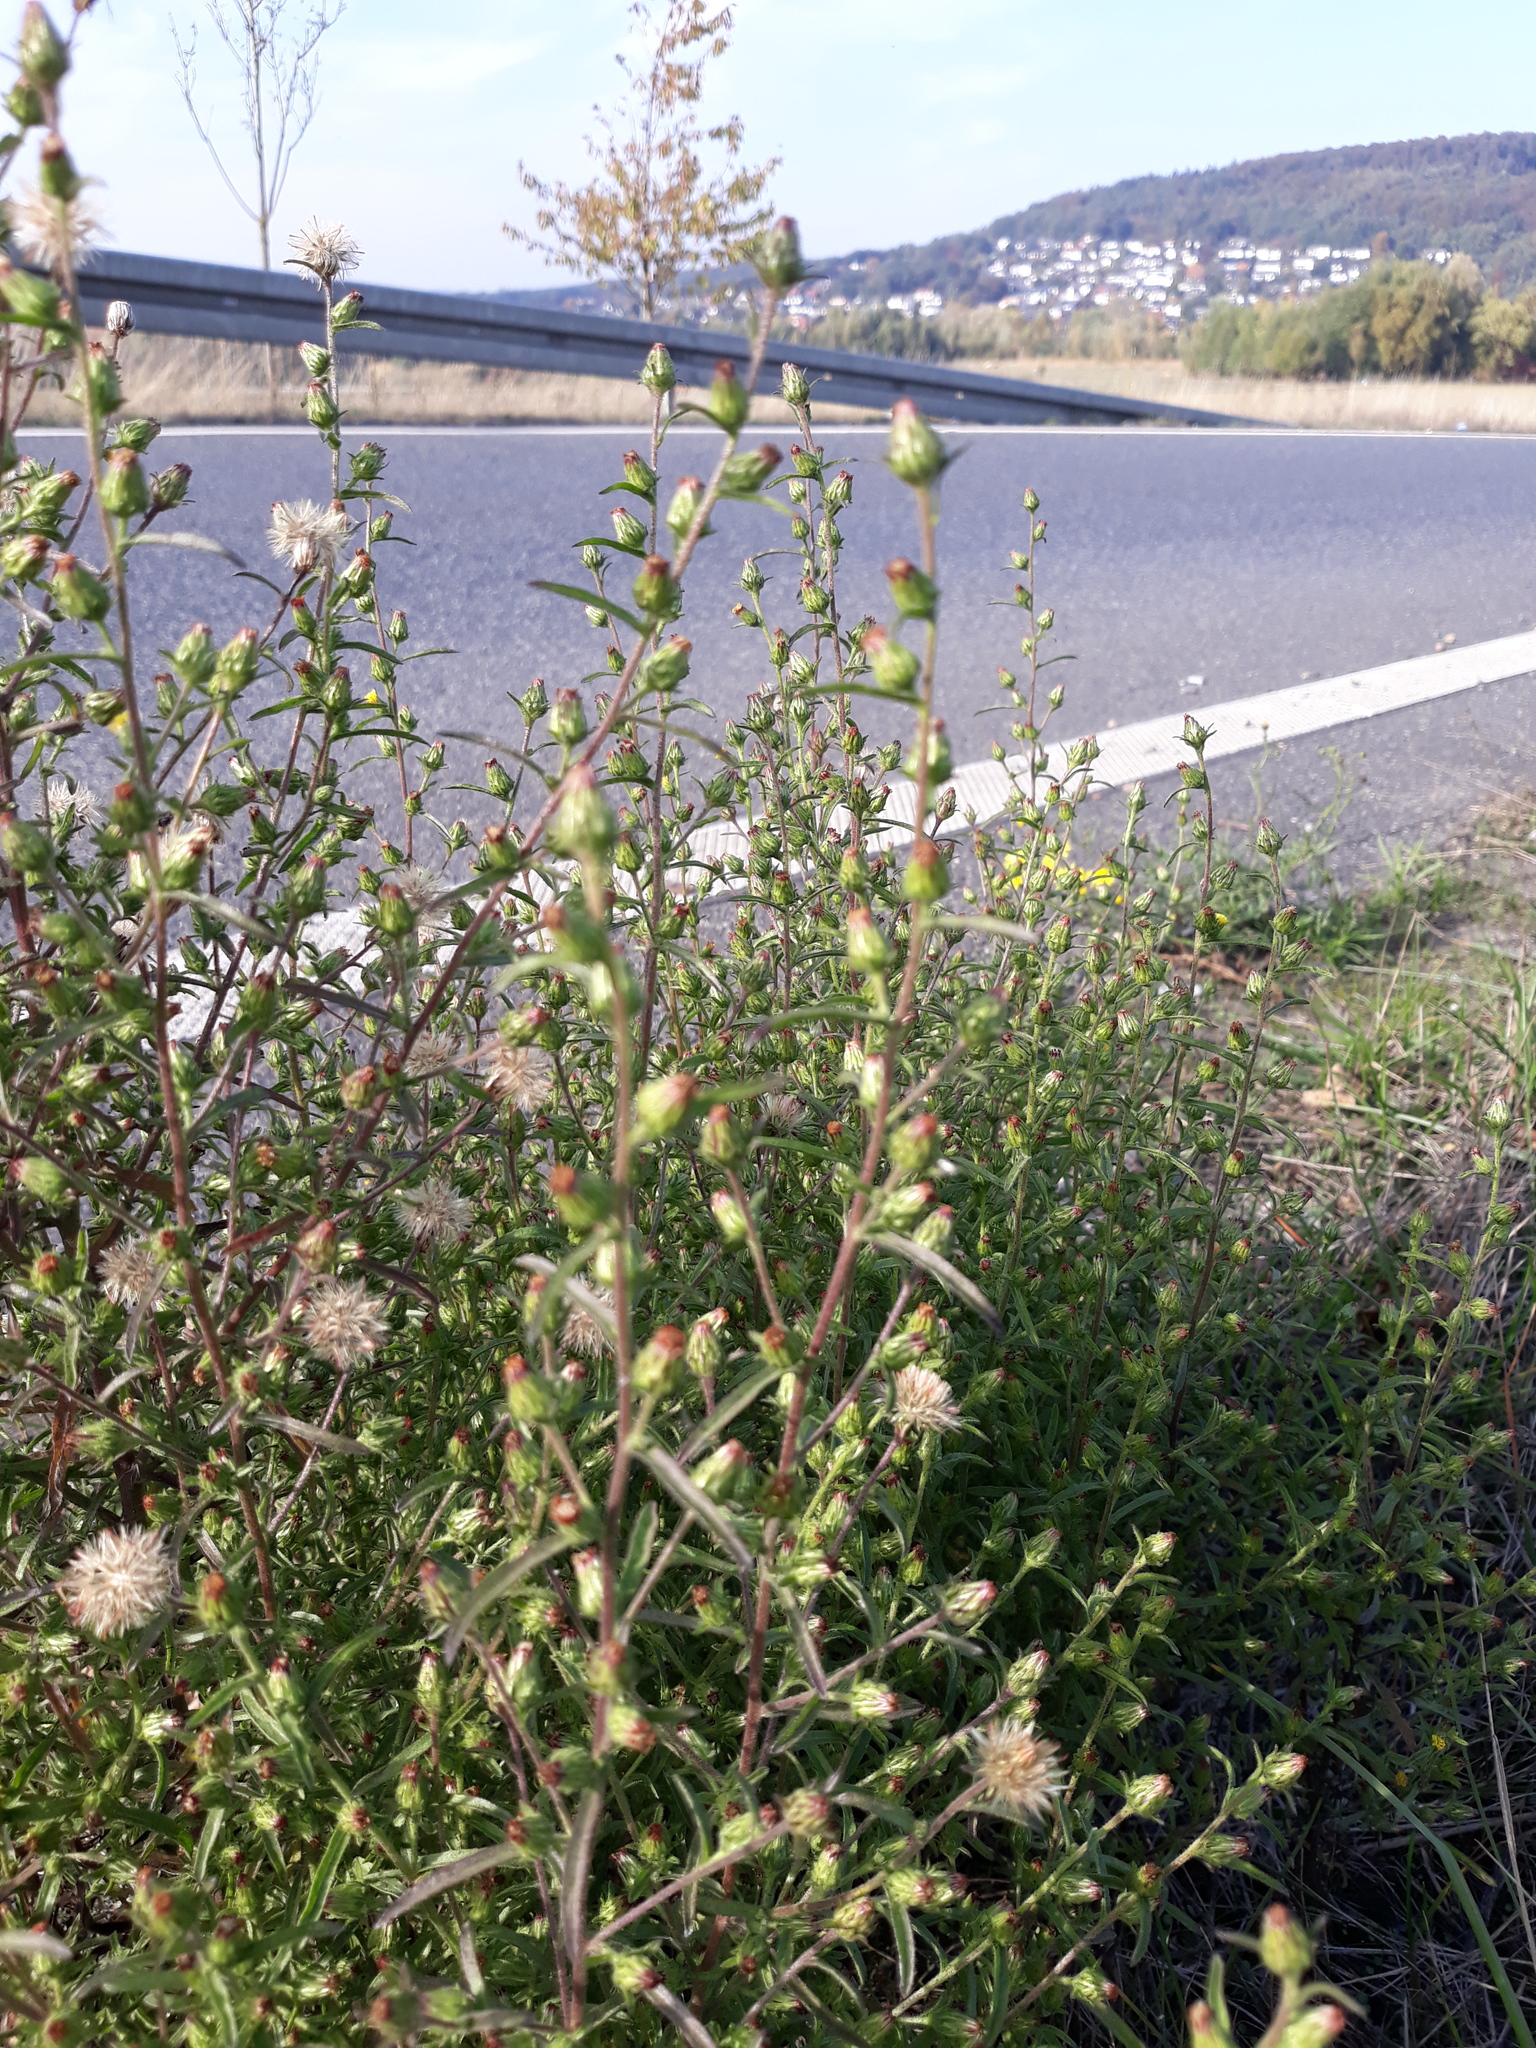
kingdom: Plantae
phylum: Tracheophyta
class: Magnoliopsida
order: Asterales
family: Asteraceae
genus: Dittrichia
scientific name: Dittrichia graveolens
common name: Stinking fleabane
